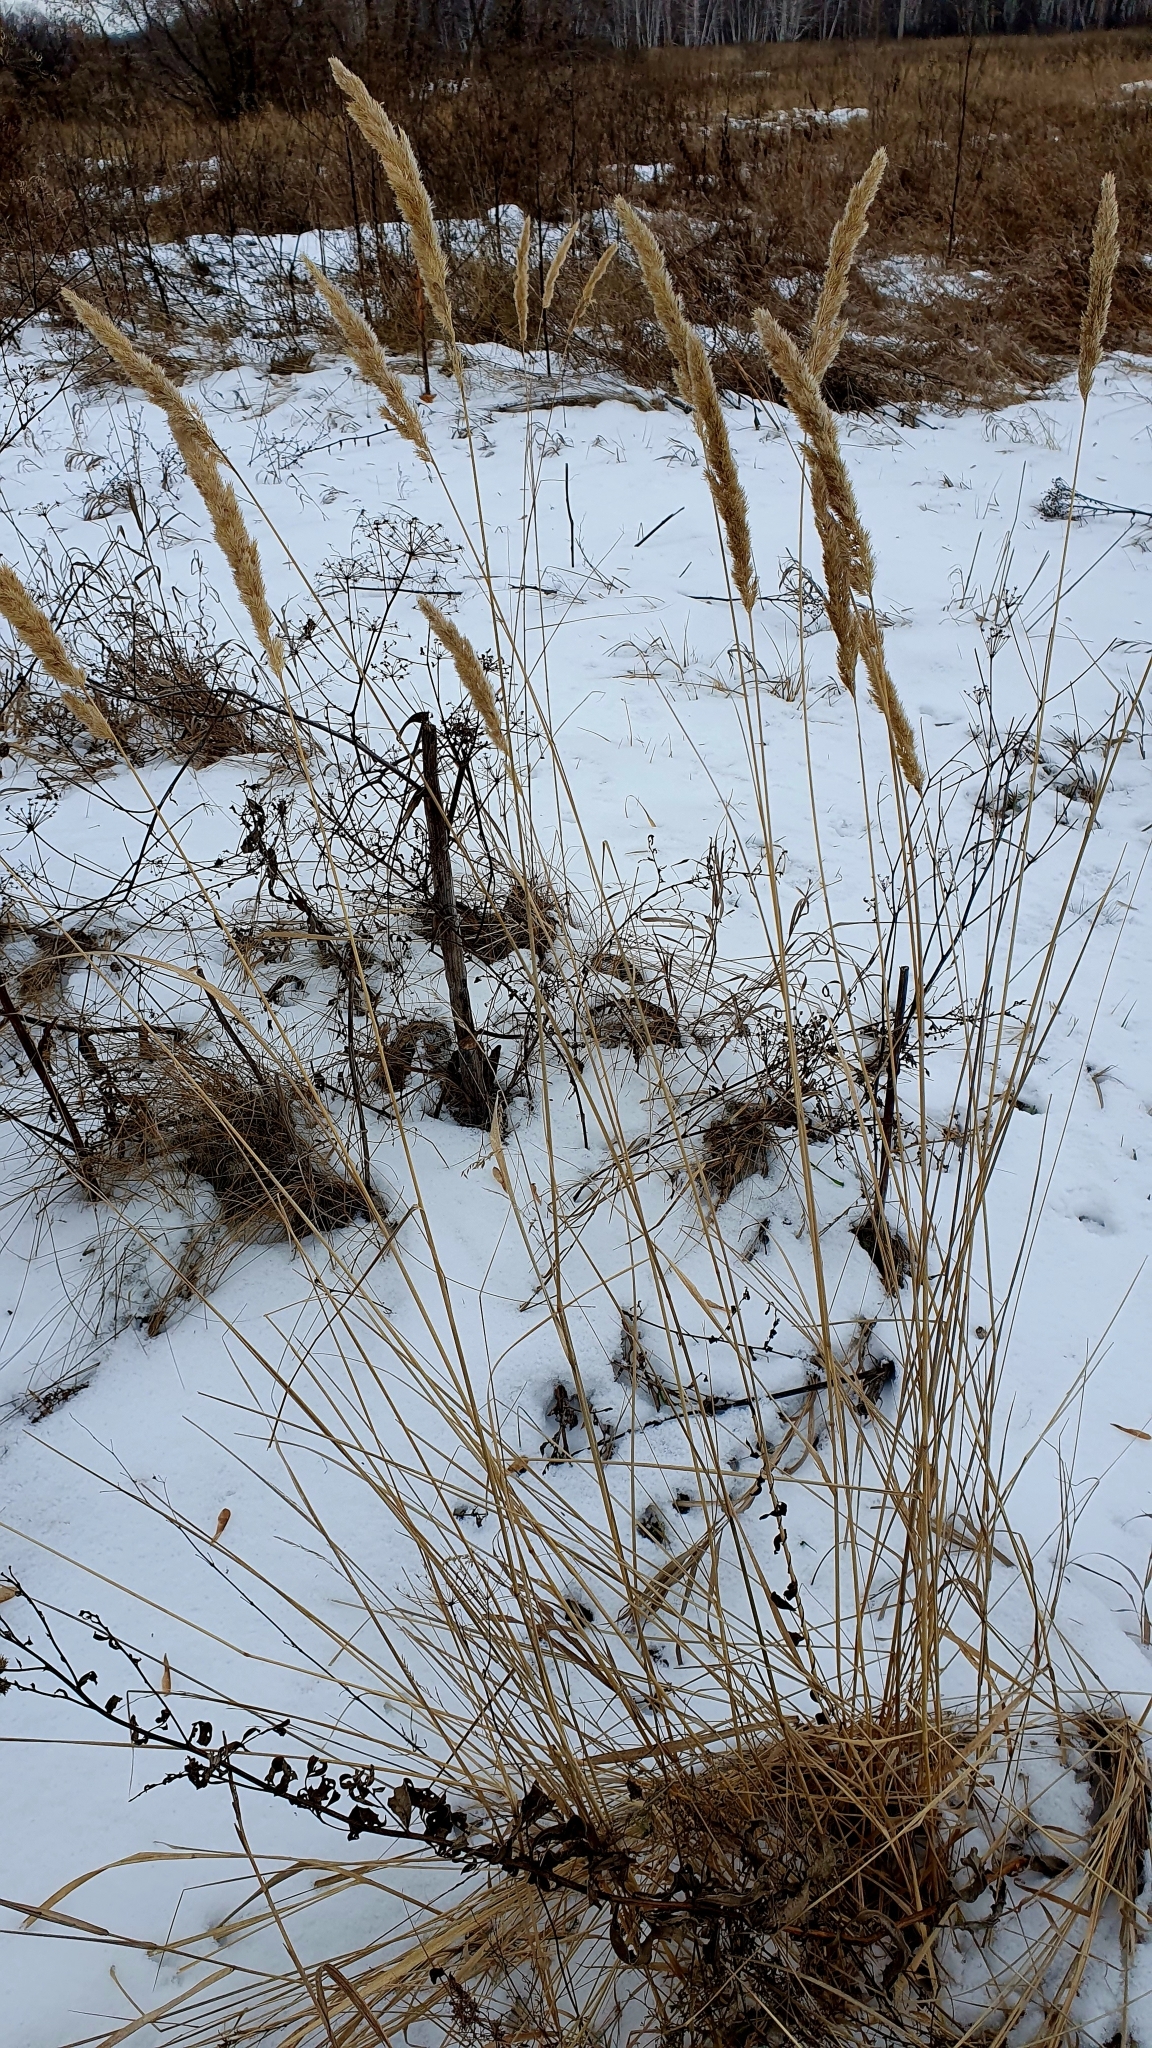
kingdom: Plantae
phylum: Tracheophyta
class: Liliopsida
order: Poales
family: Poaceae
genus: Calamagrostis
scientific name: Calamagrostis epigejos
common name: Wood small-reed
